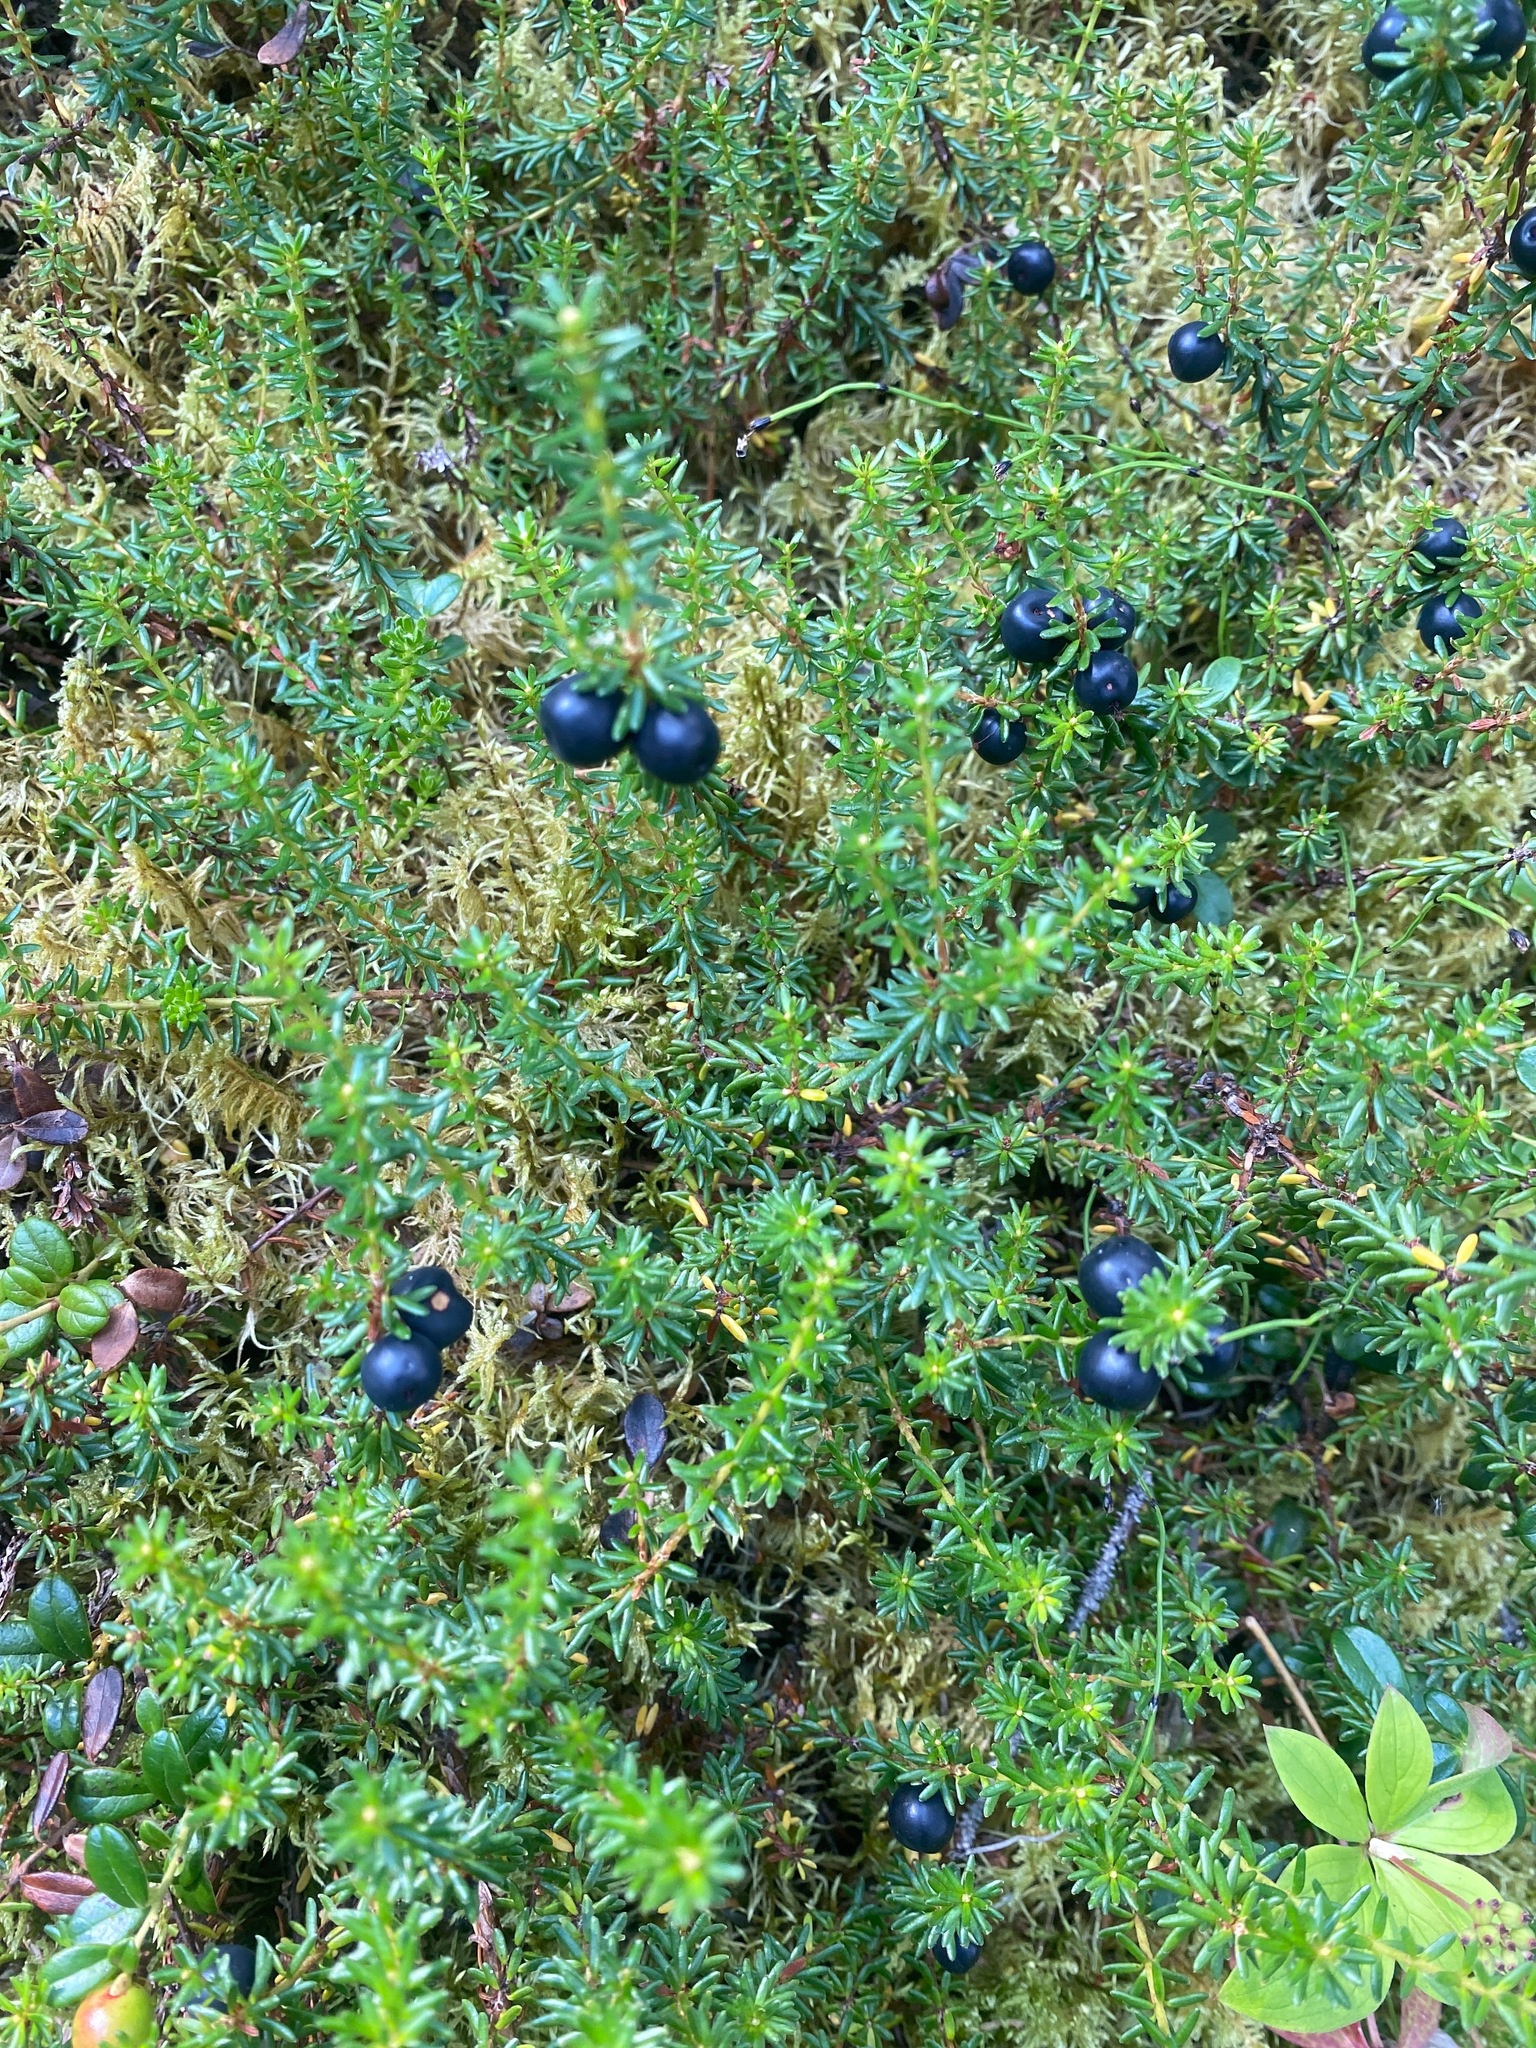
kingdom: Plantae
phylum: Tracheophyta
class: Magnoliopsida
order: Ericales
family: Ericaceae
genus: Empetrum
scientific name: Empetrum nigrum
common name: Black crowberry
